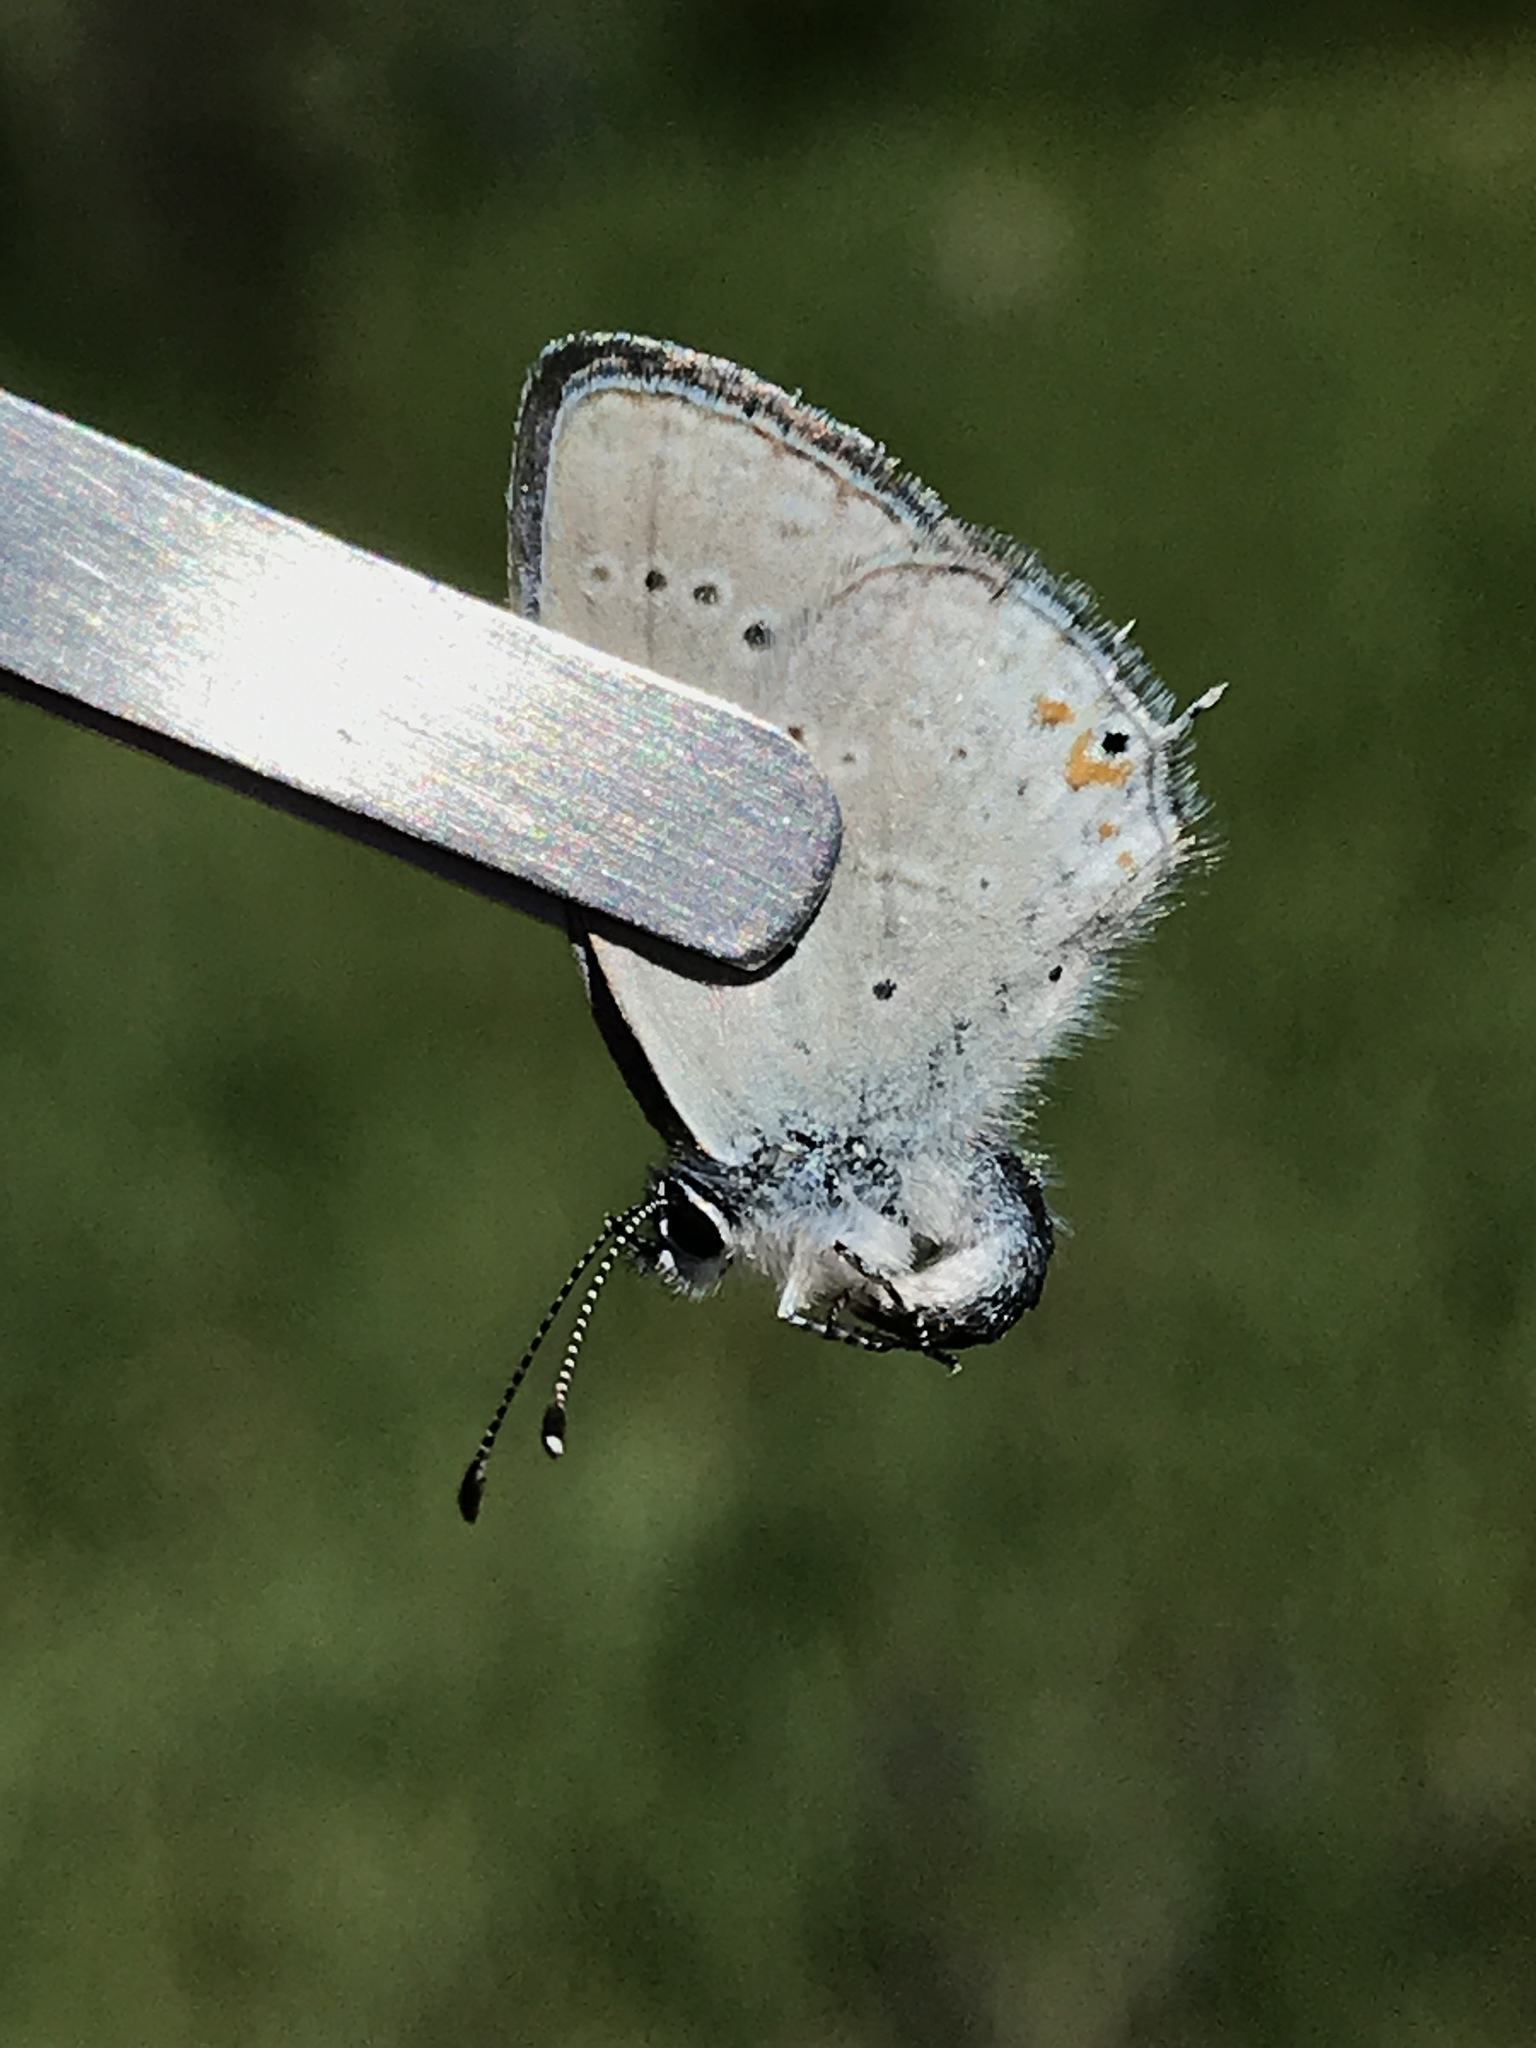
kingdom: Animalia
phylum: Arthropoda
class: Insecta
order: Lepidoptera
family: Lycaenidae
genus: Elkalyce
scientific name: Elkalyce amyntula
